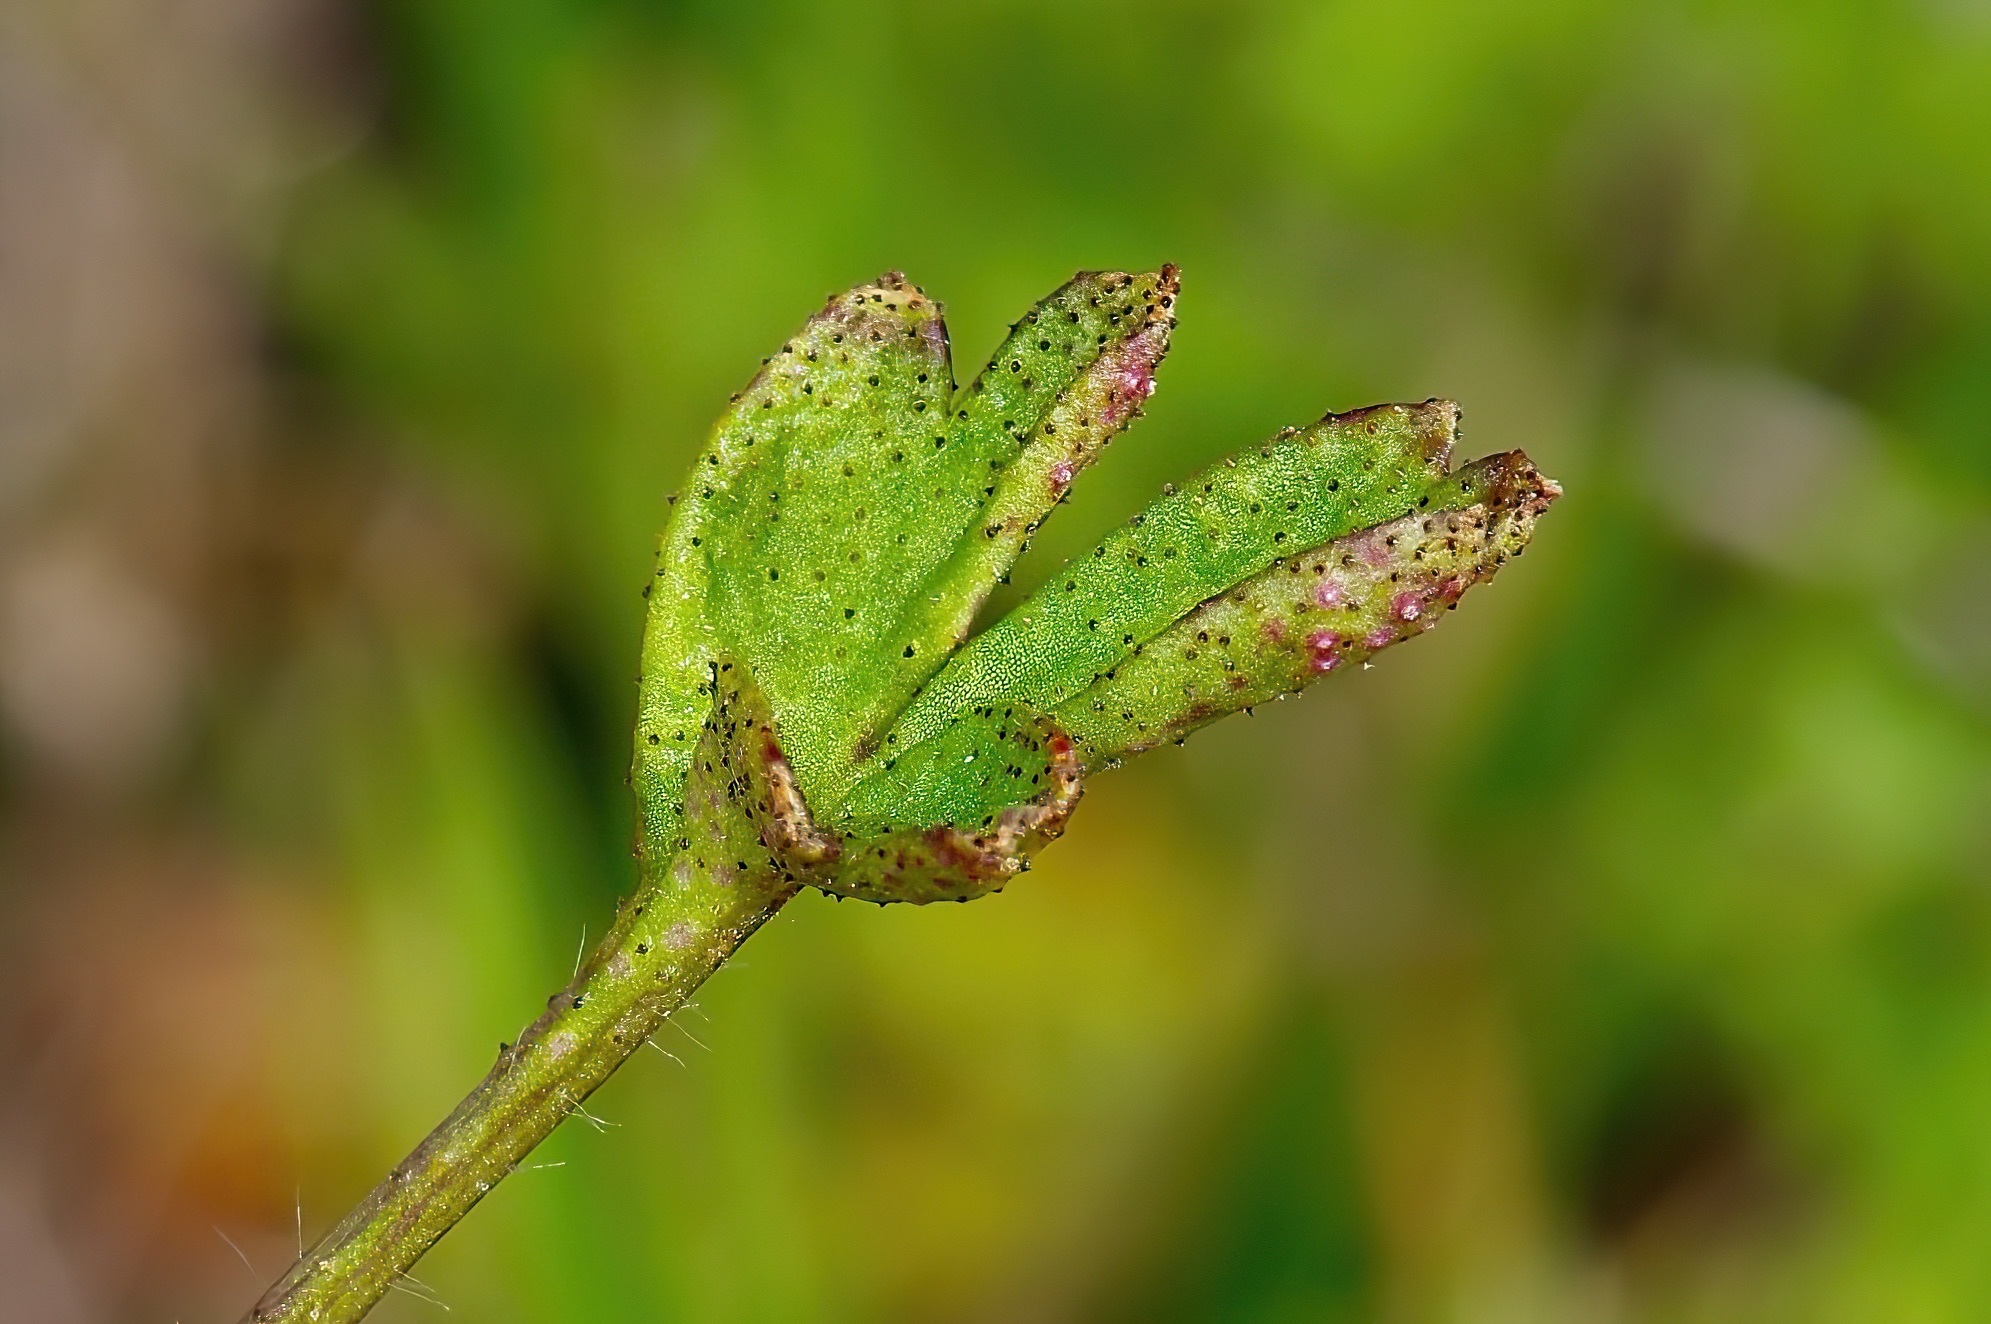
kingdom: Fungi
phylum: Basidiomycota
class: Pucciniomycetes
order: Pucciniales
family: Tranzscheliaceae
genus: Tranzschelia
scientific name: Tranzschelia cohaesa
